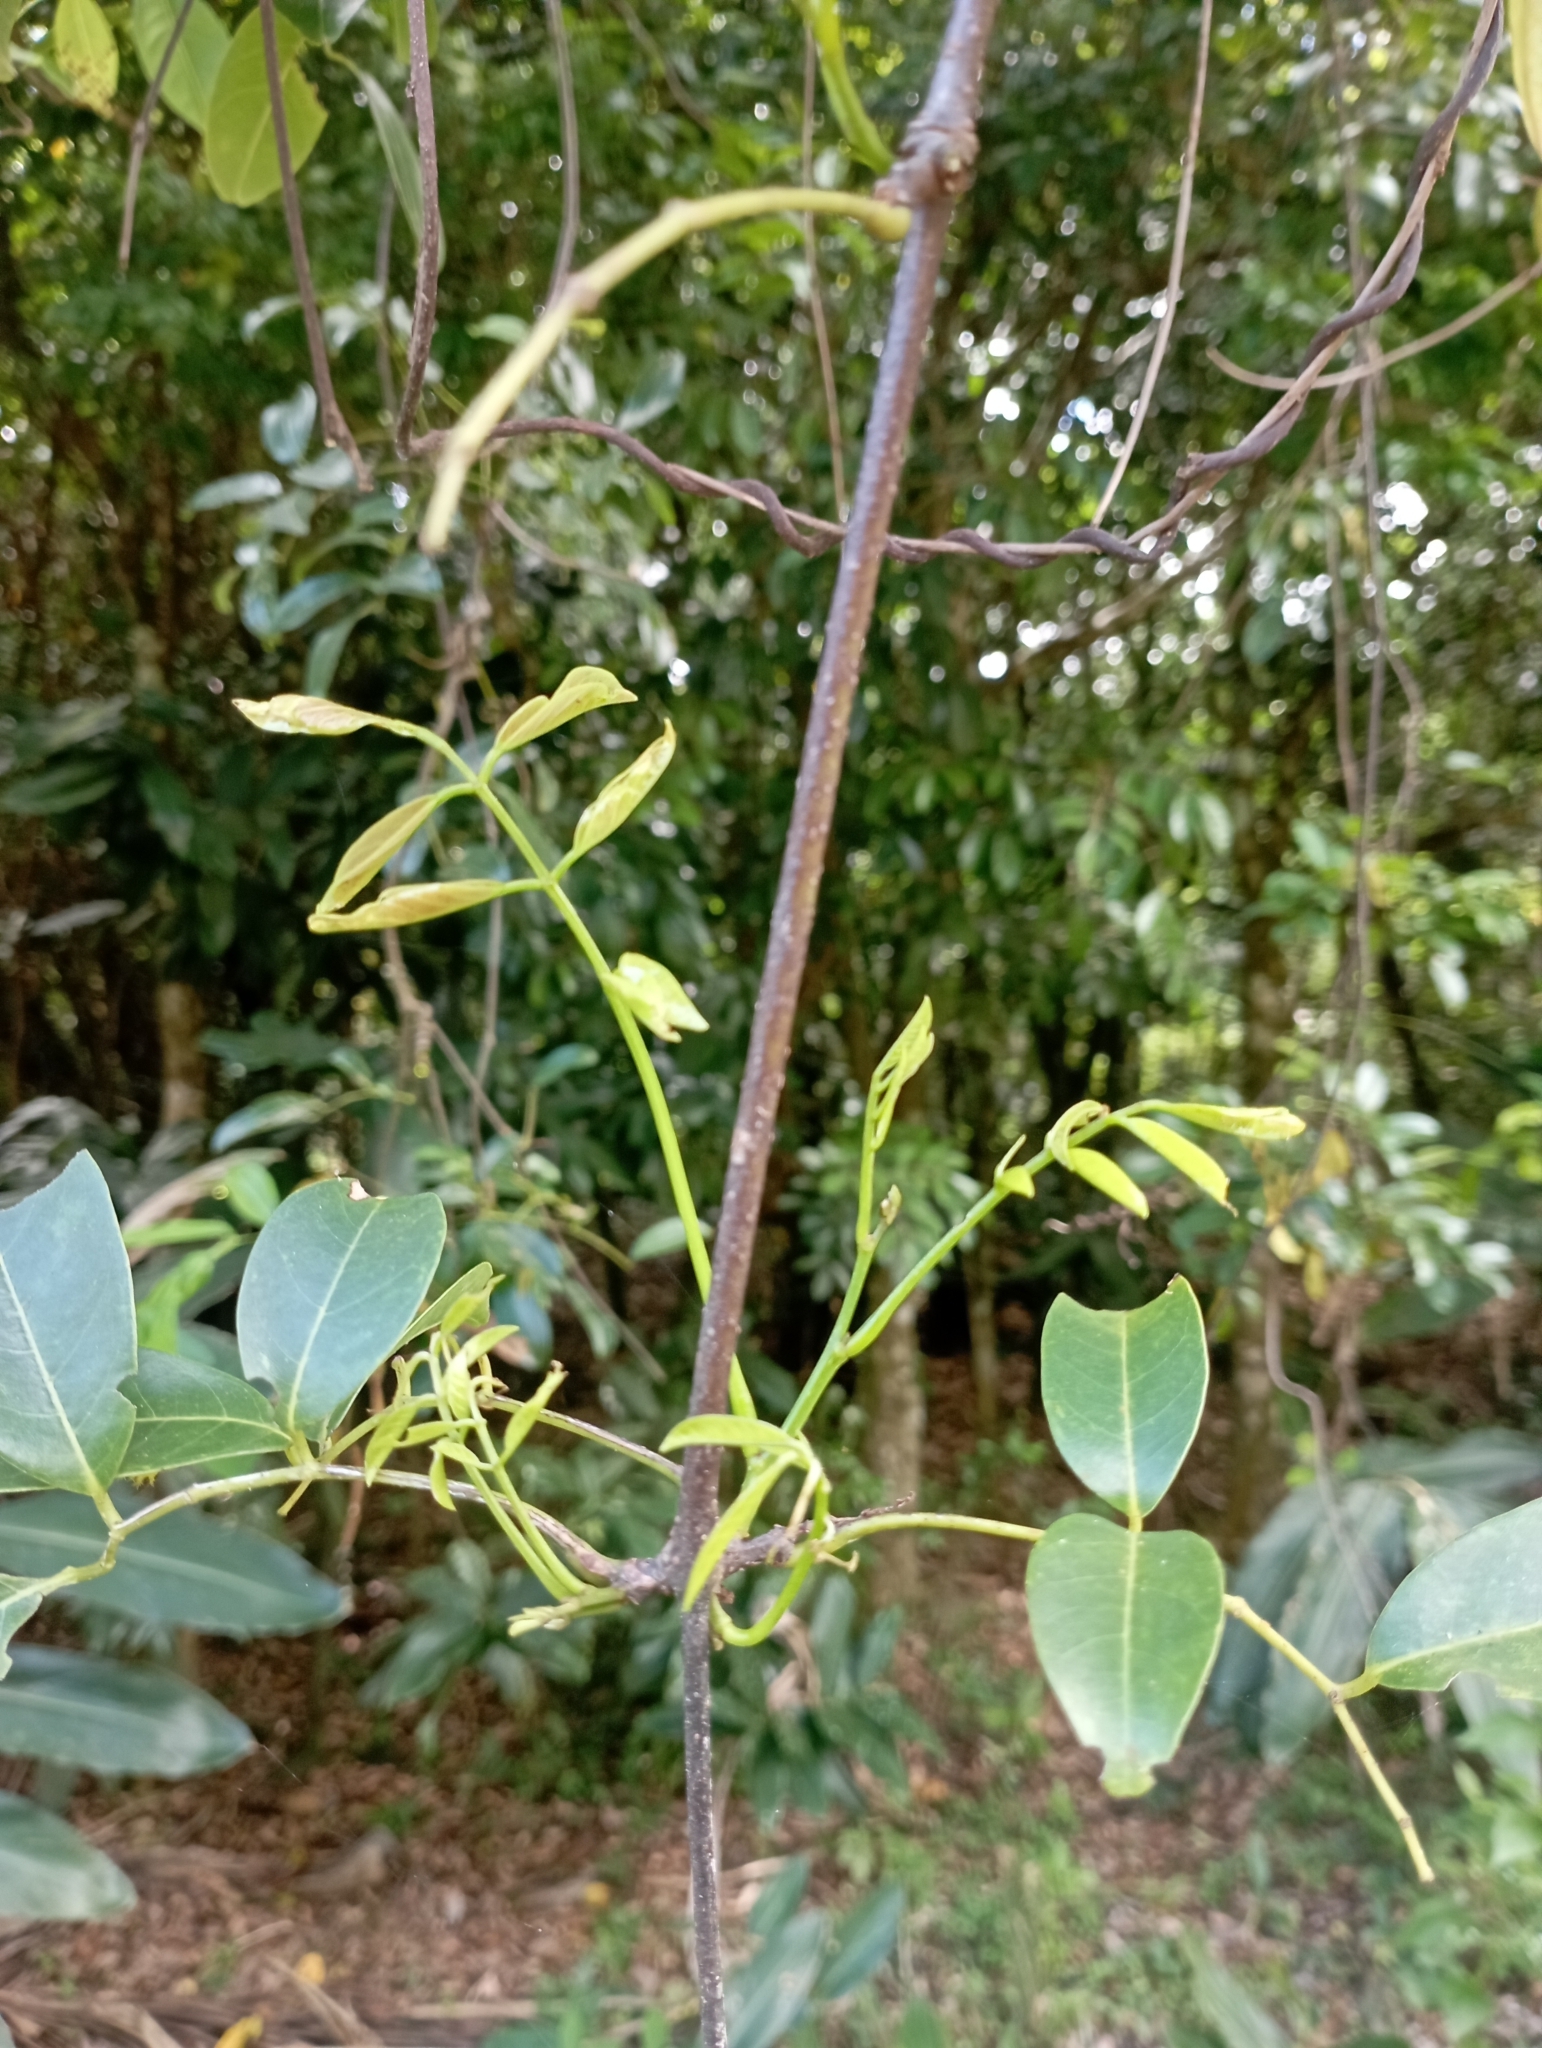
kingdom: Plantae
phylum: Tracheophyta
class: Magnoliopsida
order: Fabales
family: Fabaceae
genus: Derris
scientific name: Derris trifoliata
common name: Three-leaf derris
